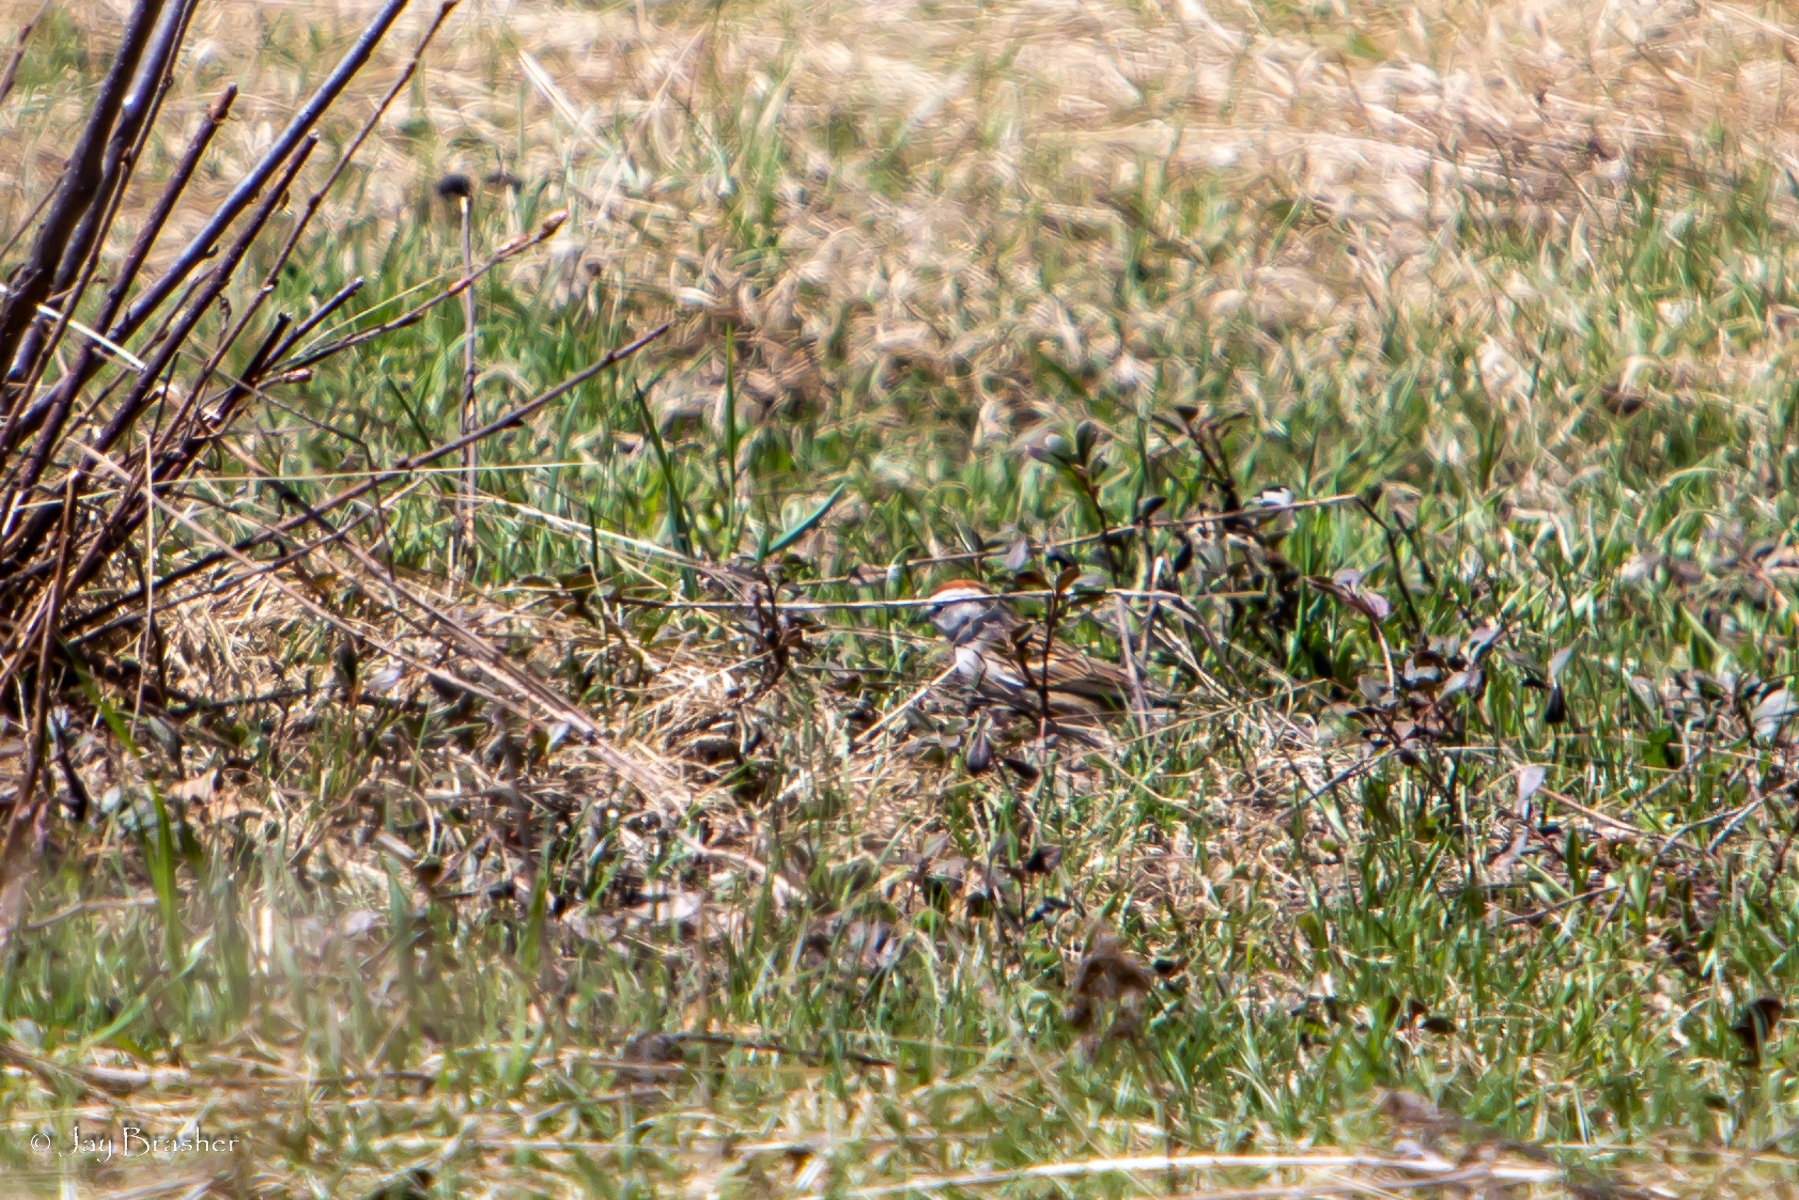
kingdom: Animalia
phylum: Chordata
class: Aves
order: Passeriformes
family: Passerellidae
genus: Spizella
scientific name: Spizella passerina
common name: Chipping sparrow
